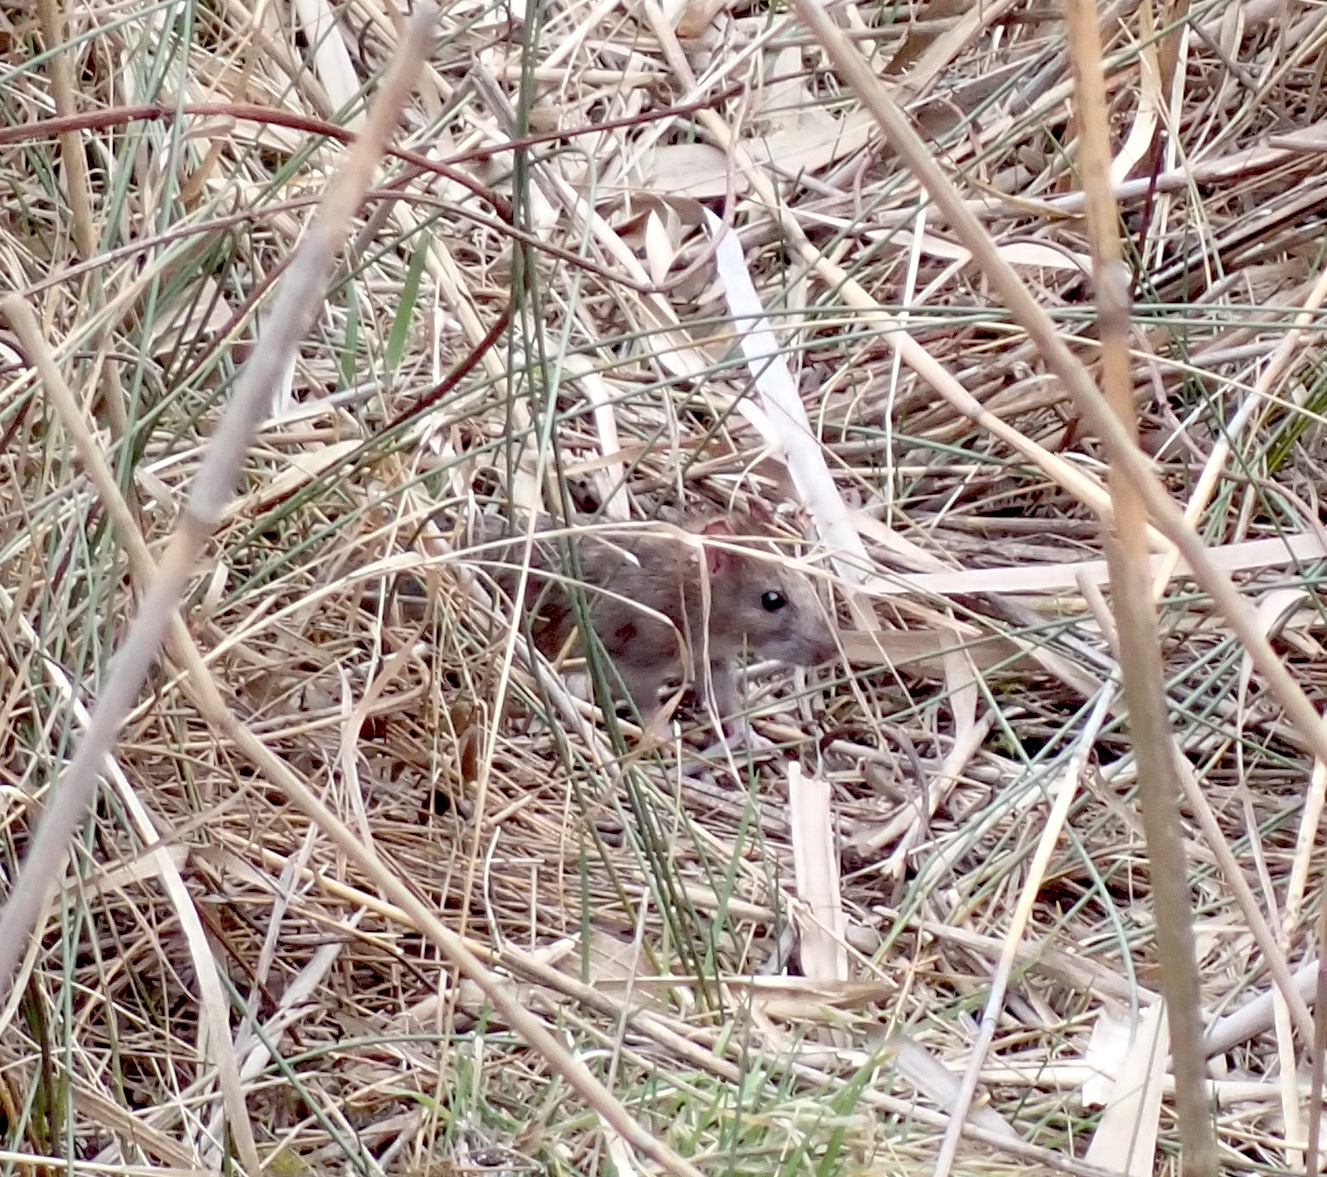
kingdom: Animalia
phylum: Chordata
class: Mammalia
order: Rodentia
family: Muridae
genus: Rattus
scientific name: Rattus norvegicus
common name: Brown rat
